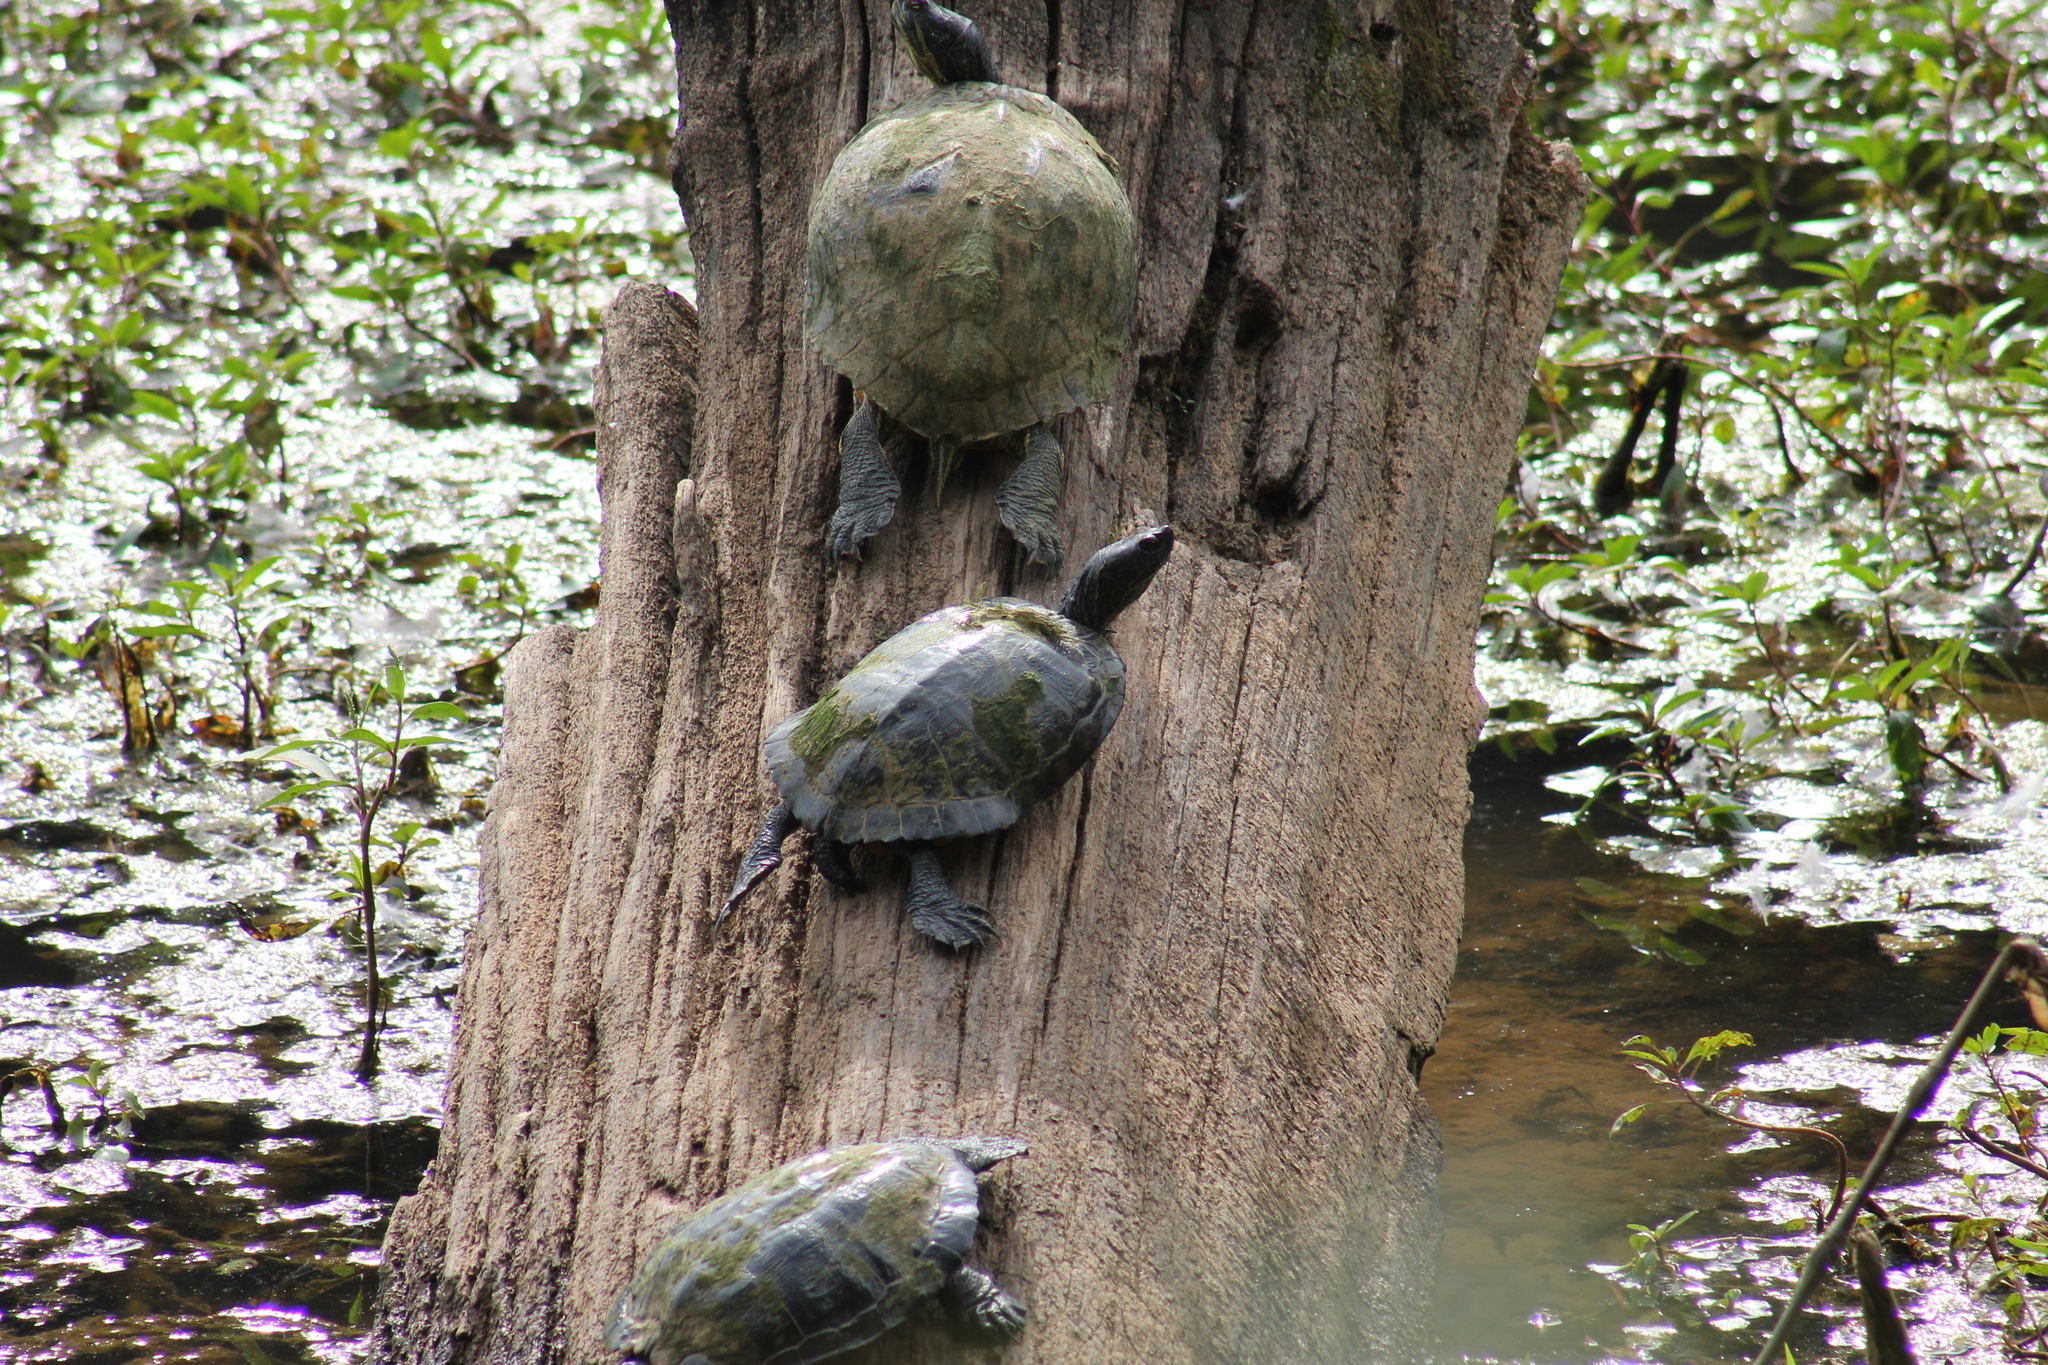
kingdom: Animalia
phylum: Chordata
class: Testudines
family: Emydidae
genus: Trachemys
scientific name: Trachemys scripta
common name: Slider
